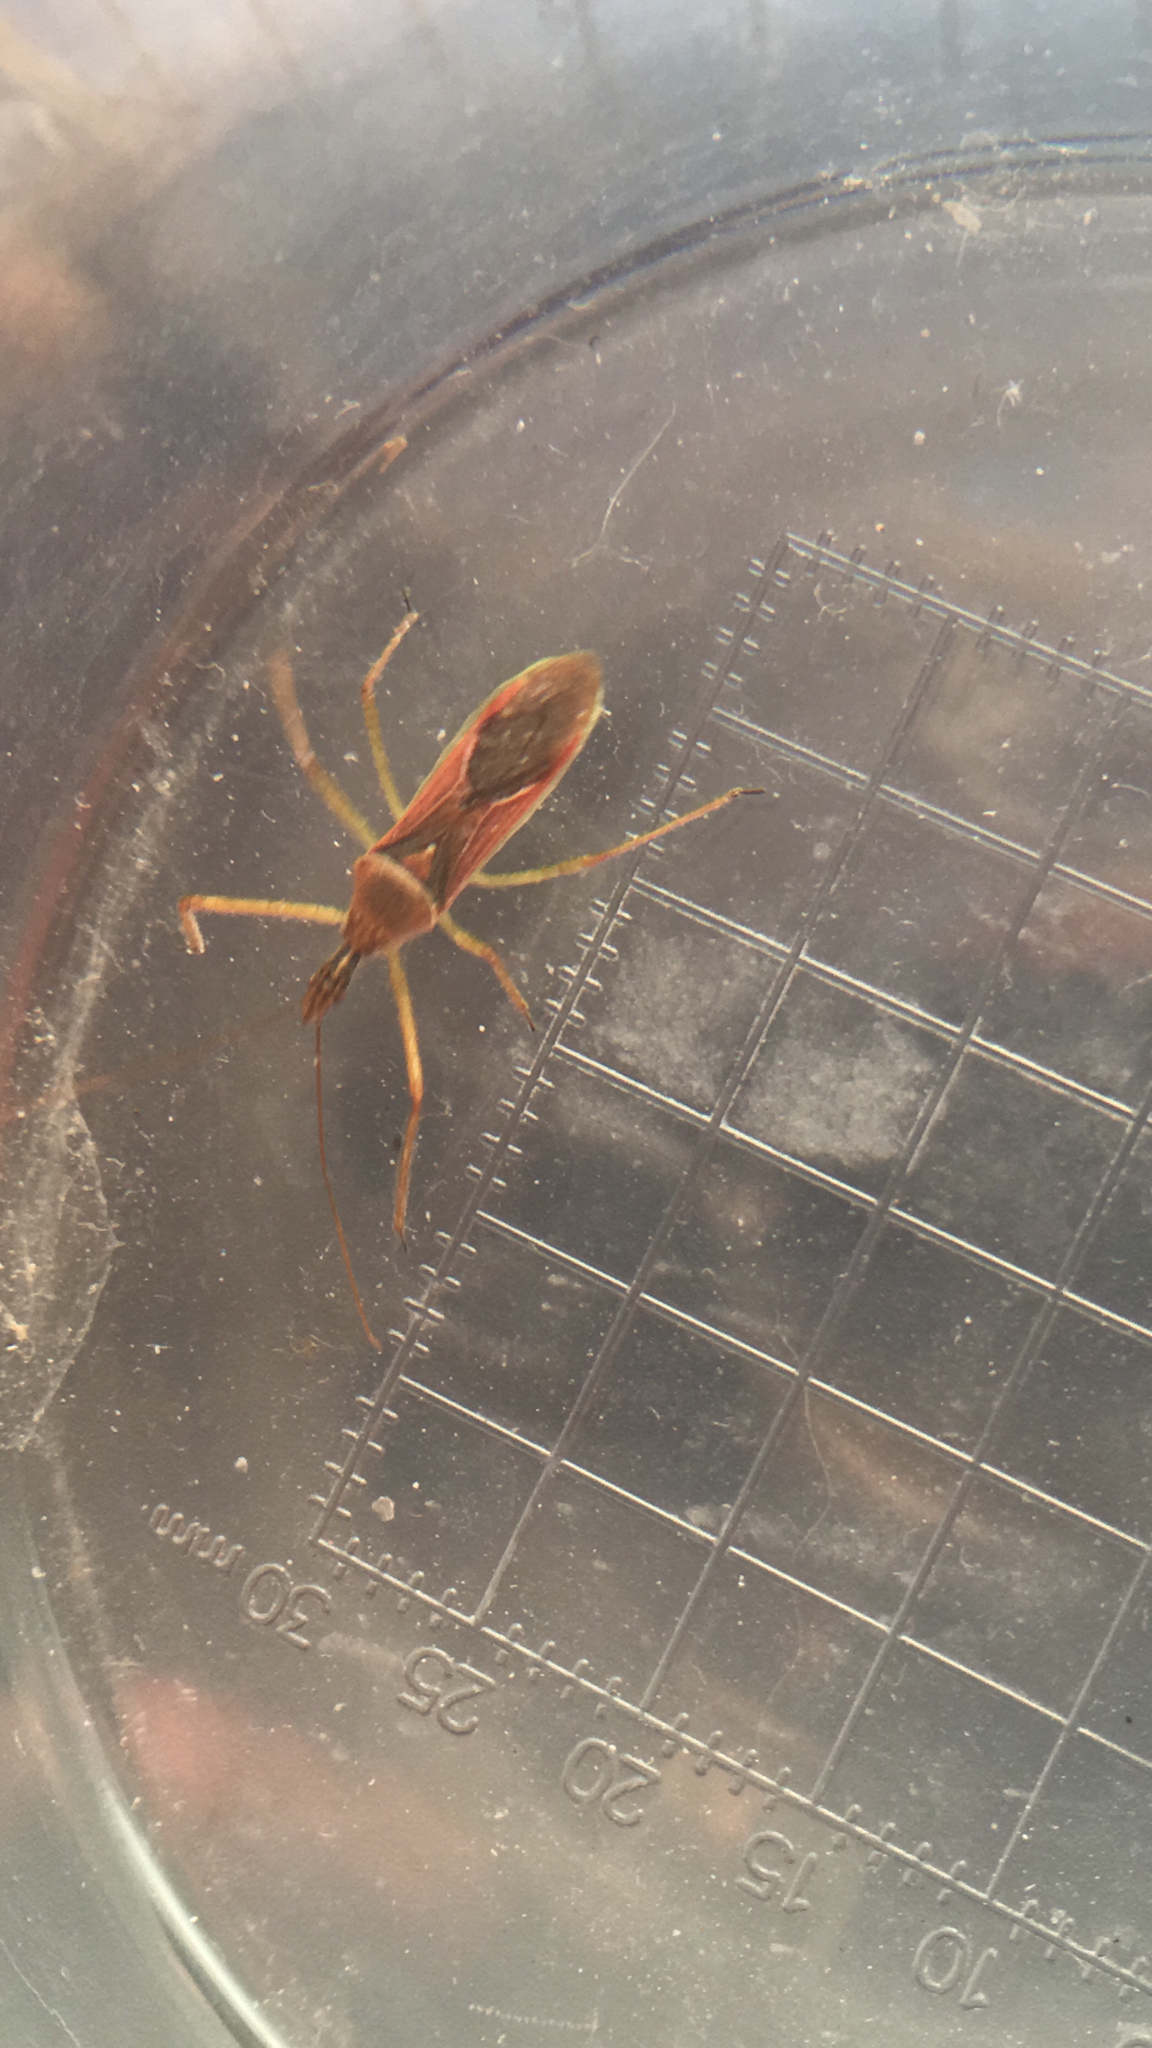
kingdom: Animalia
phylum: Arthropoda
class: Insecta
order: Hemiptera
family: Reduviidae
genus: Zelus
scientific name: Zelus renardii
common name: Assassin bug
